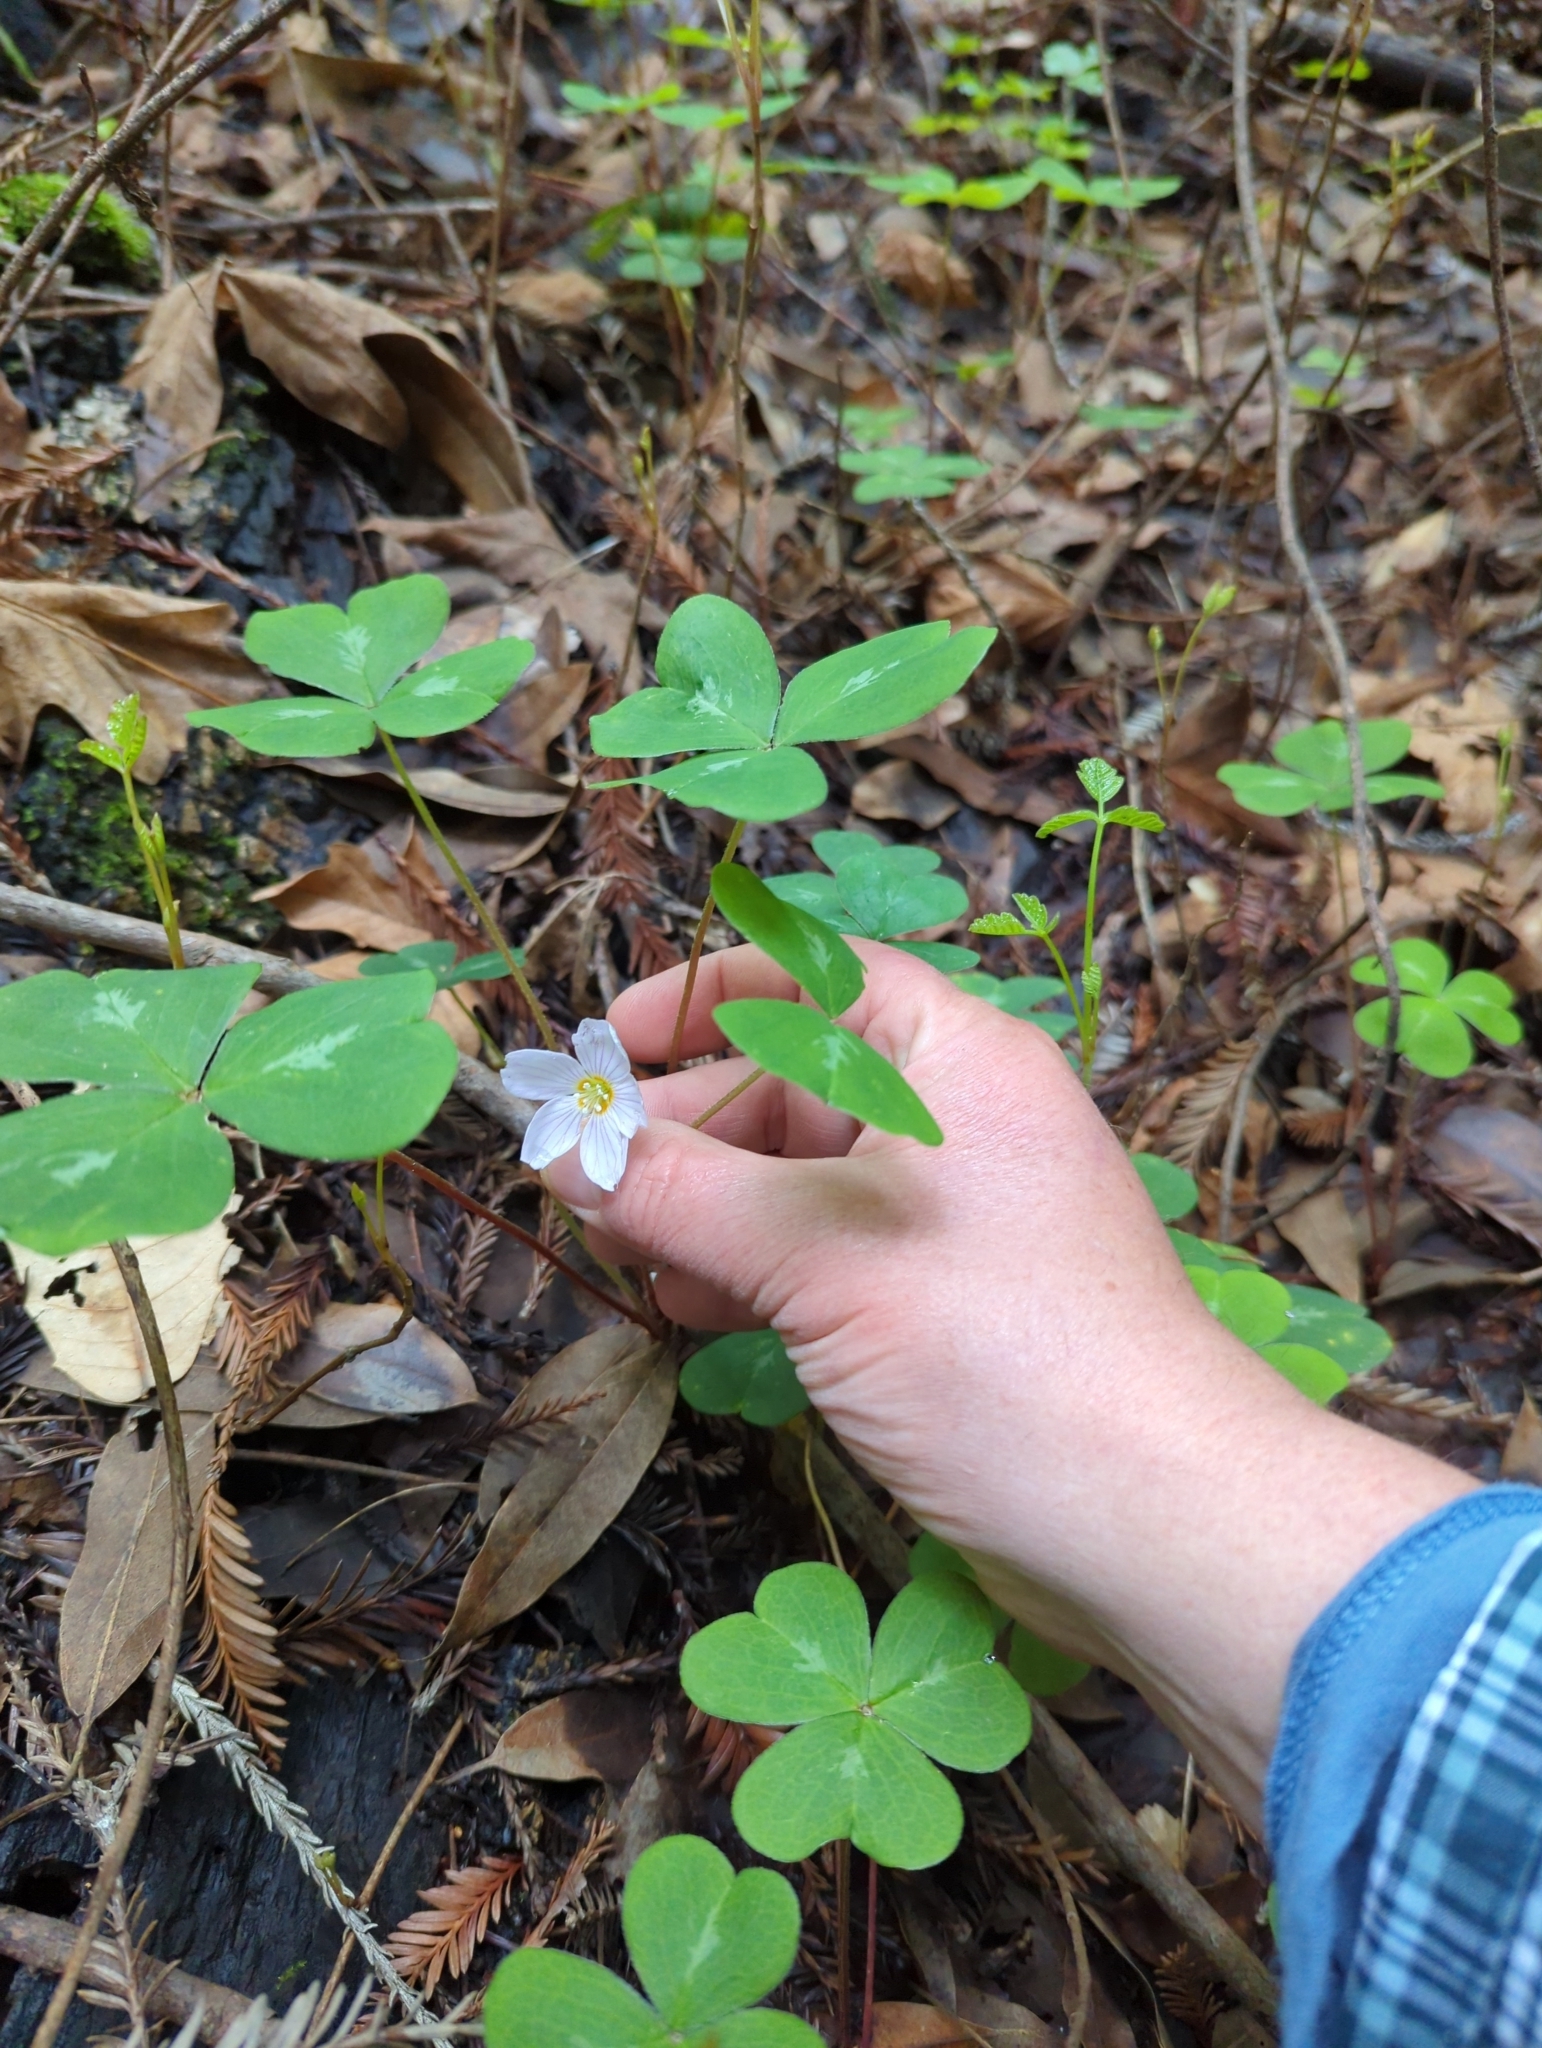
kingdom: Plantae
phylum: Tracheophyta
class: Magnoliopsida
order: Oxalidales
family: Oxalidaceae
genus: Oxalis
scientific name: Oxalis oregana
